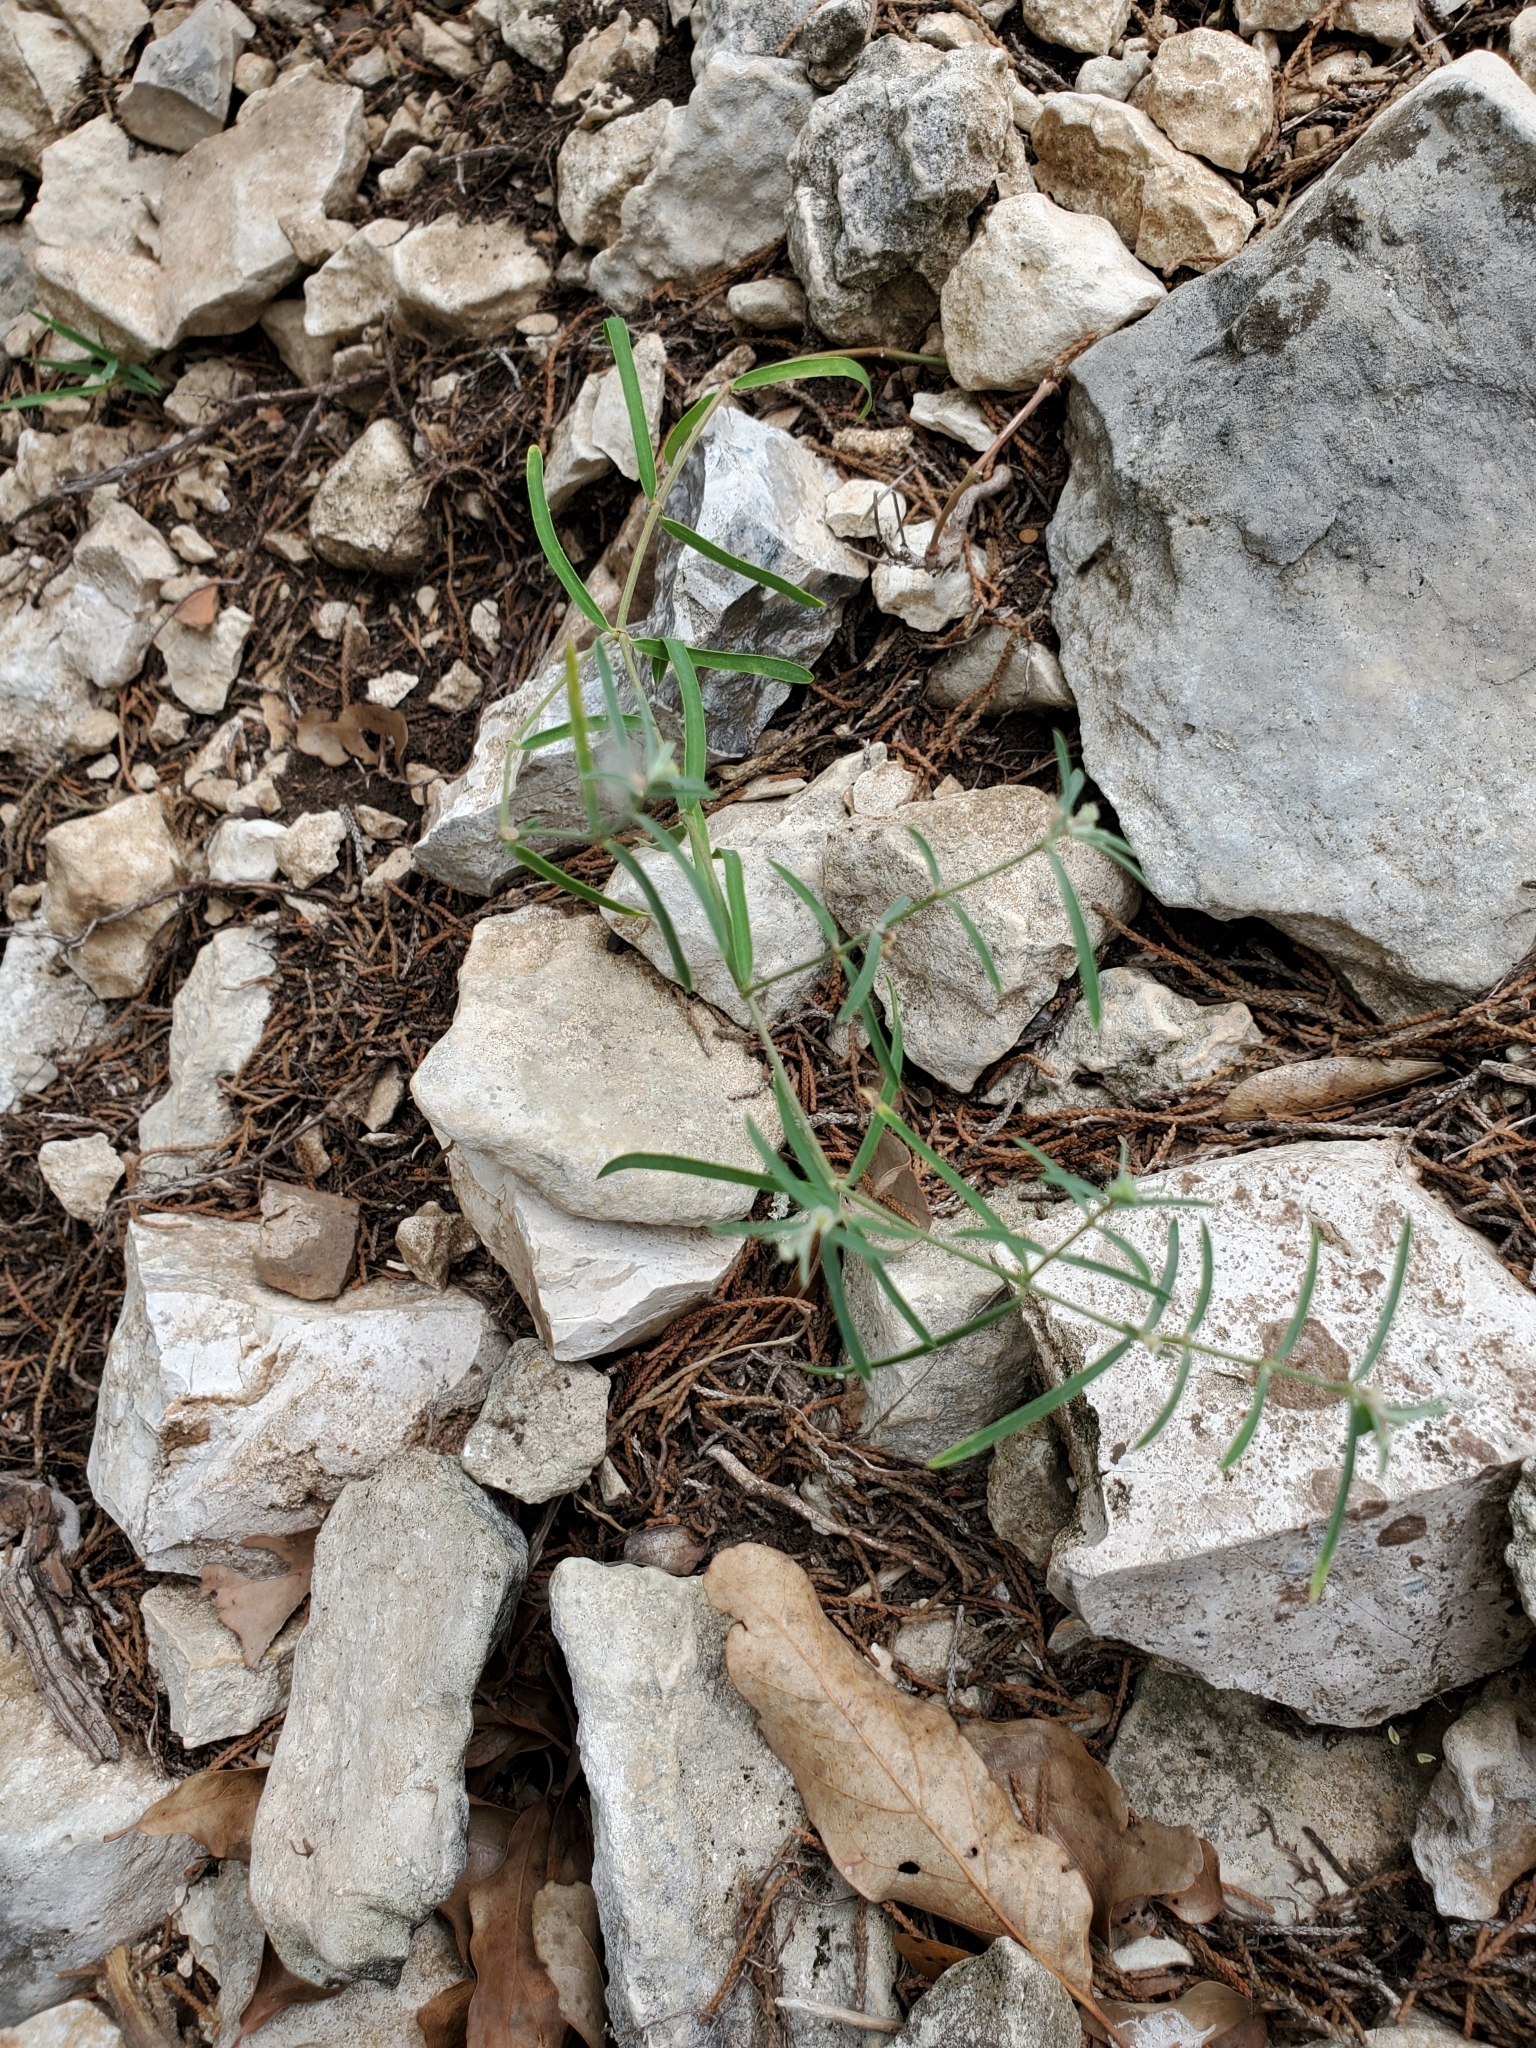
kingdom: Plantae
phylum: Tracheophyta
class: Magnoliopsida
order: Malpighiales
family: Euphorbiaceae
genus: Euphorbia
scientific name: Euphorbia angusta
